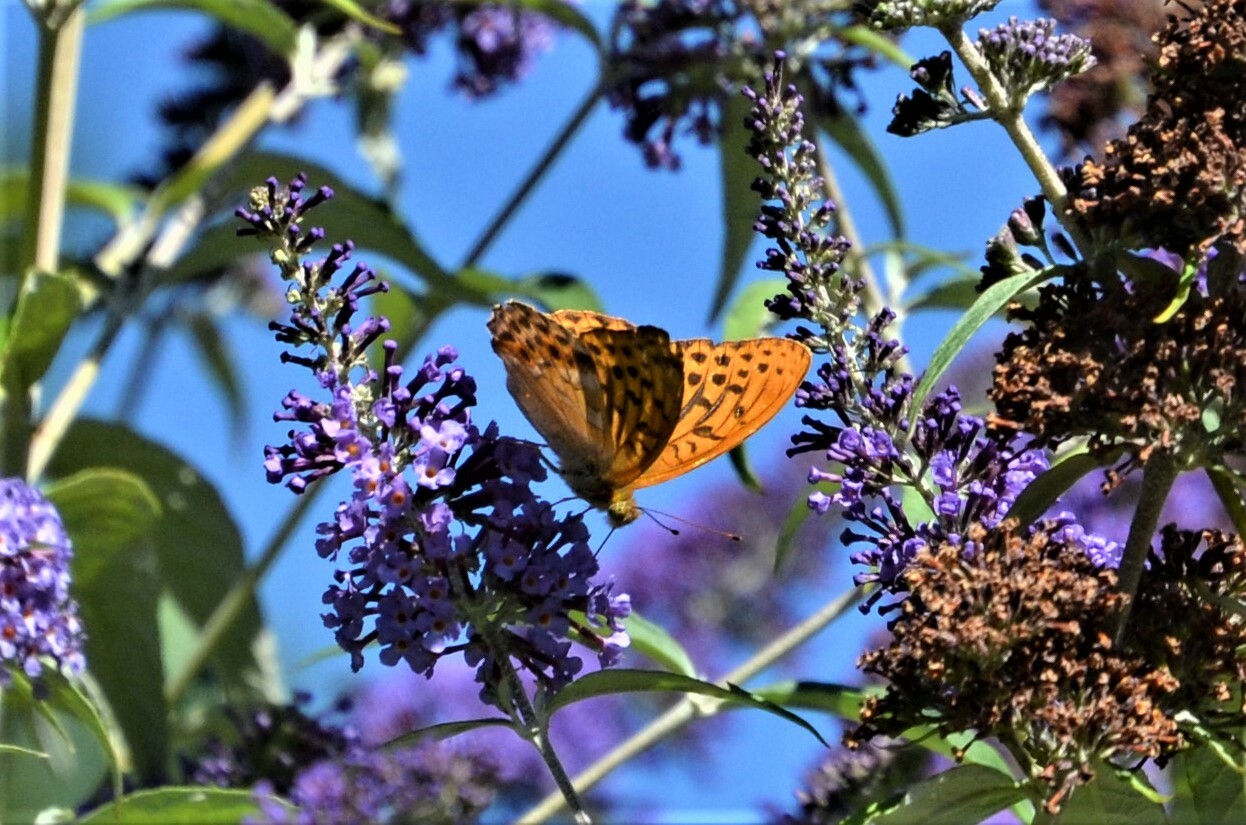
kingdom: Animalia
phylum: Arthropoda
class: Insecta
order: Lepidoptera
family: Nymphalidae
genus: Argynnis
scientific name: Argynnis paphia
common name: Silver-washed fritillary
